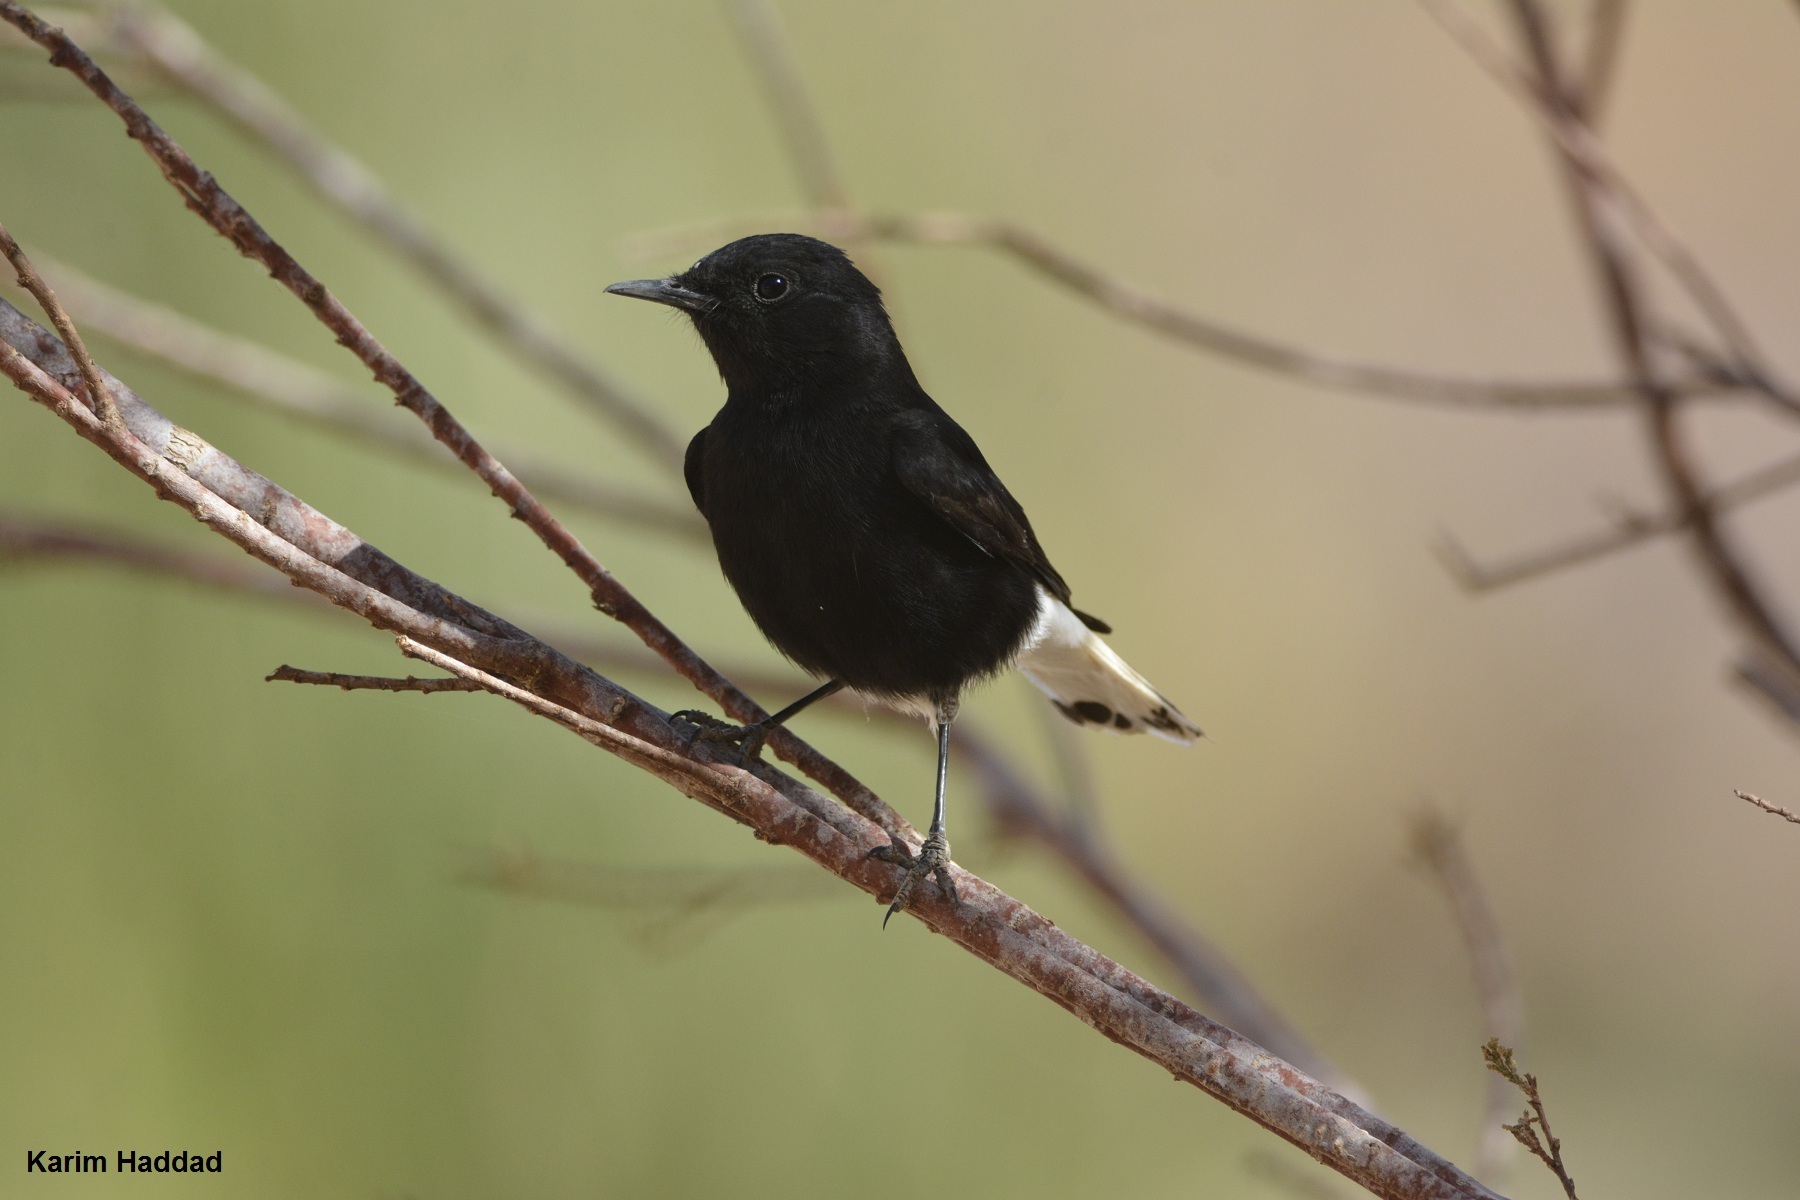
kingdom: Animalia
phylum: Chordata
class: Aves
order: Passeriformes
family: Muscicapidae
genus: Oenanthe
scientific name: Oenanthe leucopyga
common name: White-crowned wheatear
